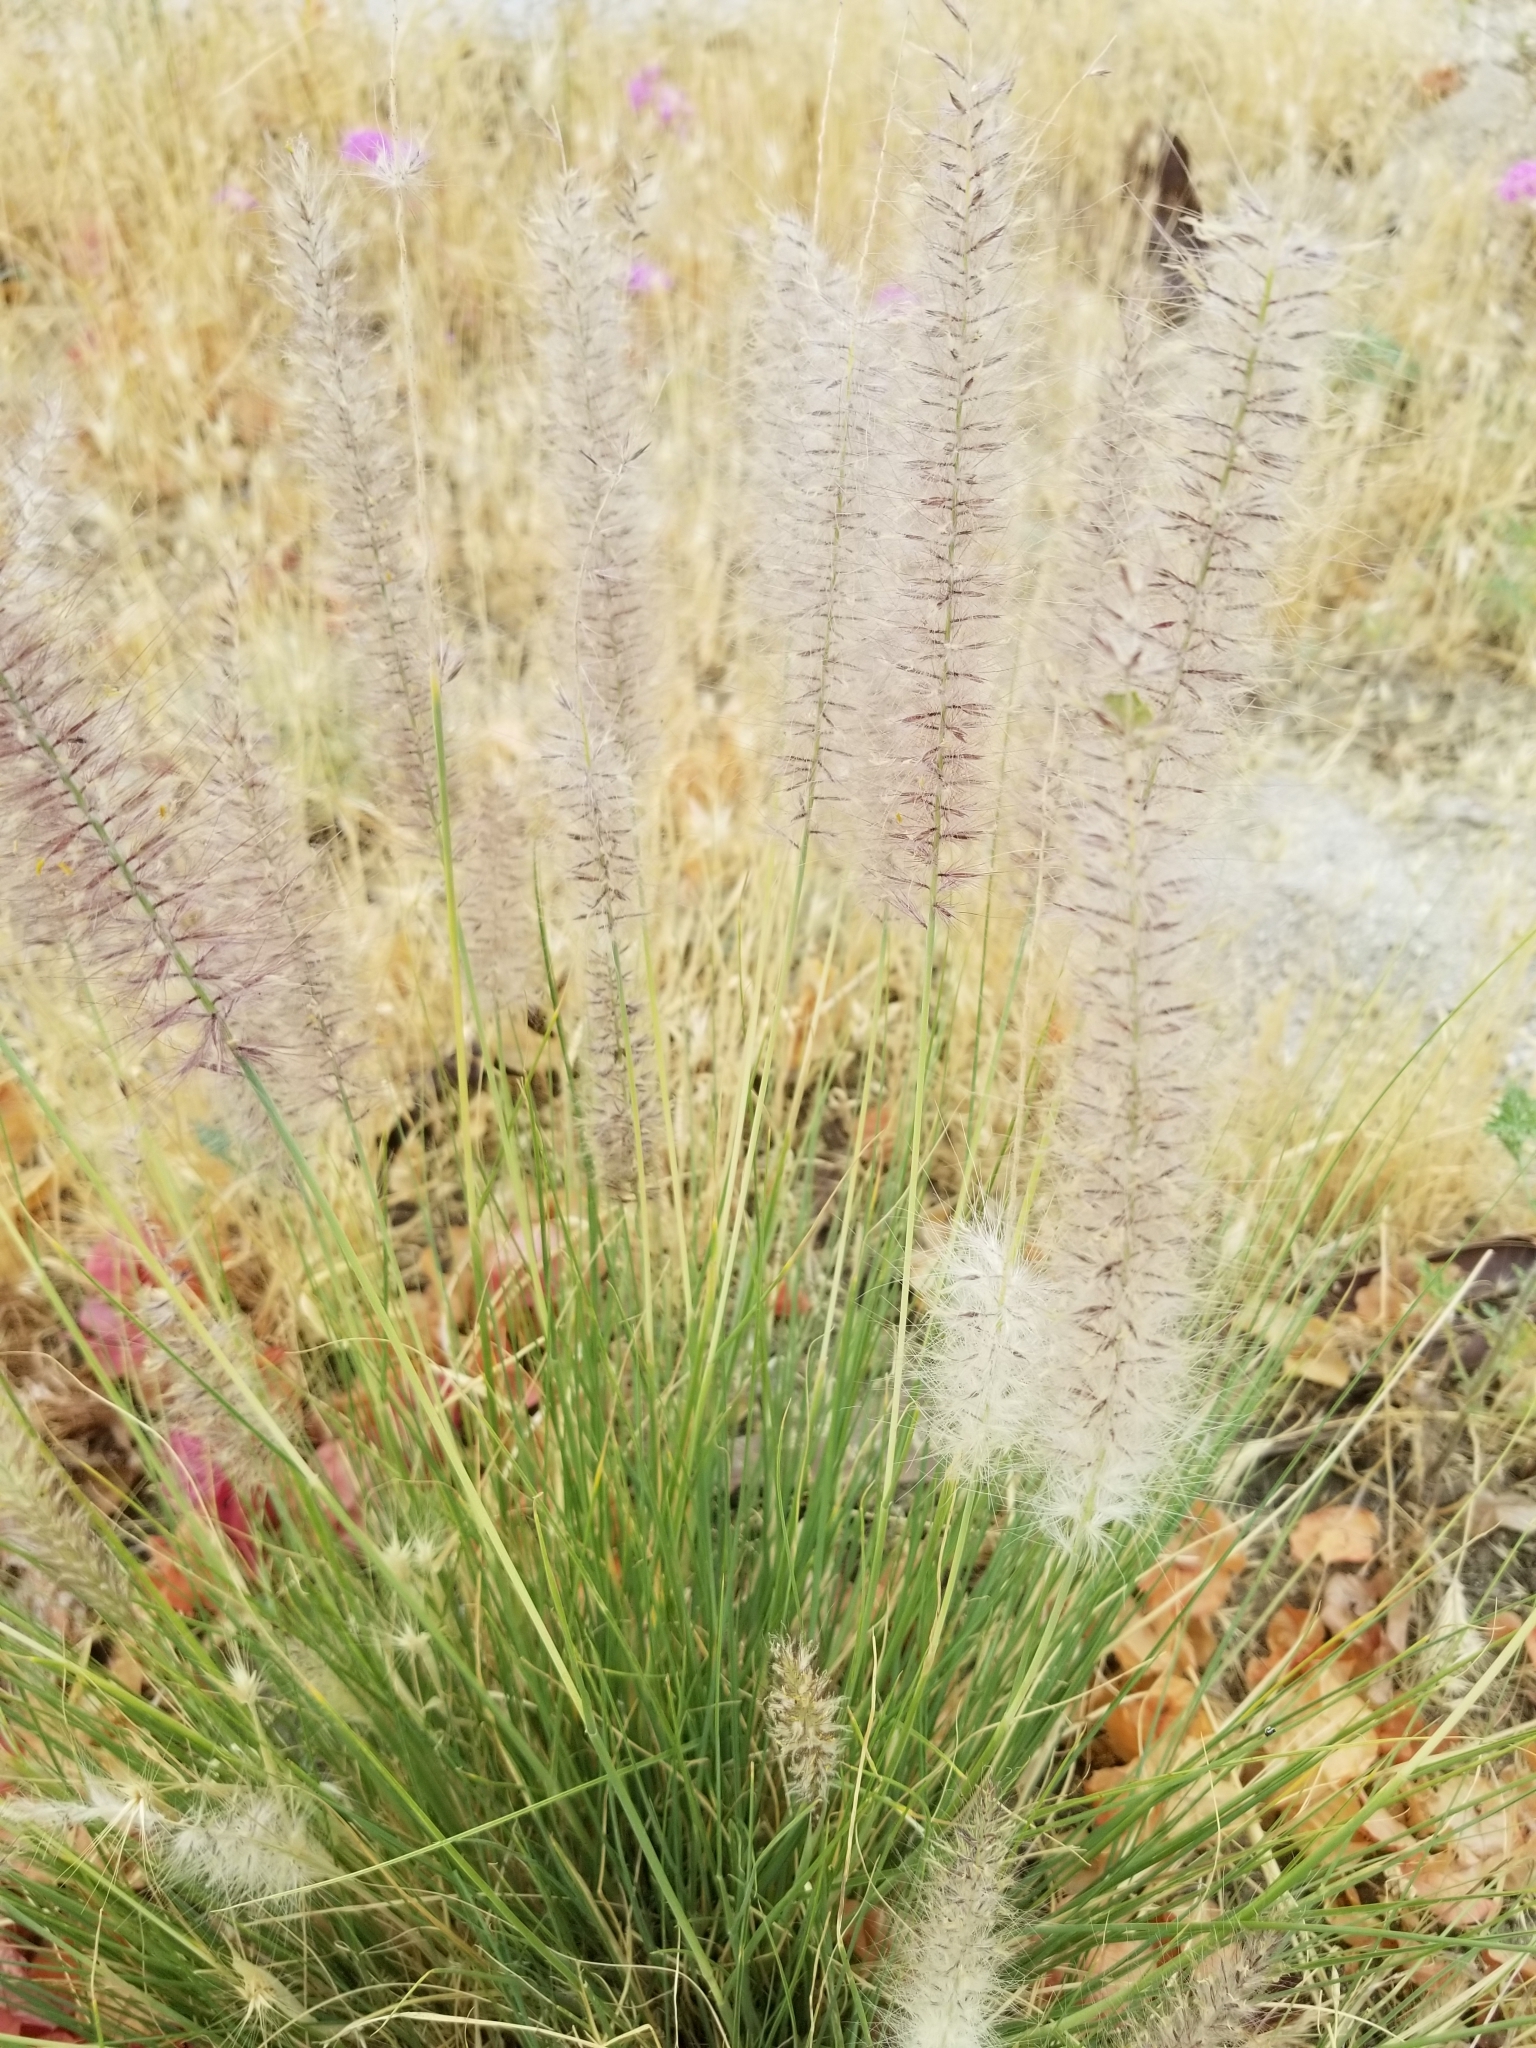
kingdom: Plantae
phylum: Tracheophyta
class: Liliopsida
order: Poales
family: Poaceae
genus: Cenchrus
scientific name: Cenchrus setaceus
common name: Crimson fountaingrass
